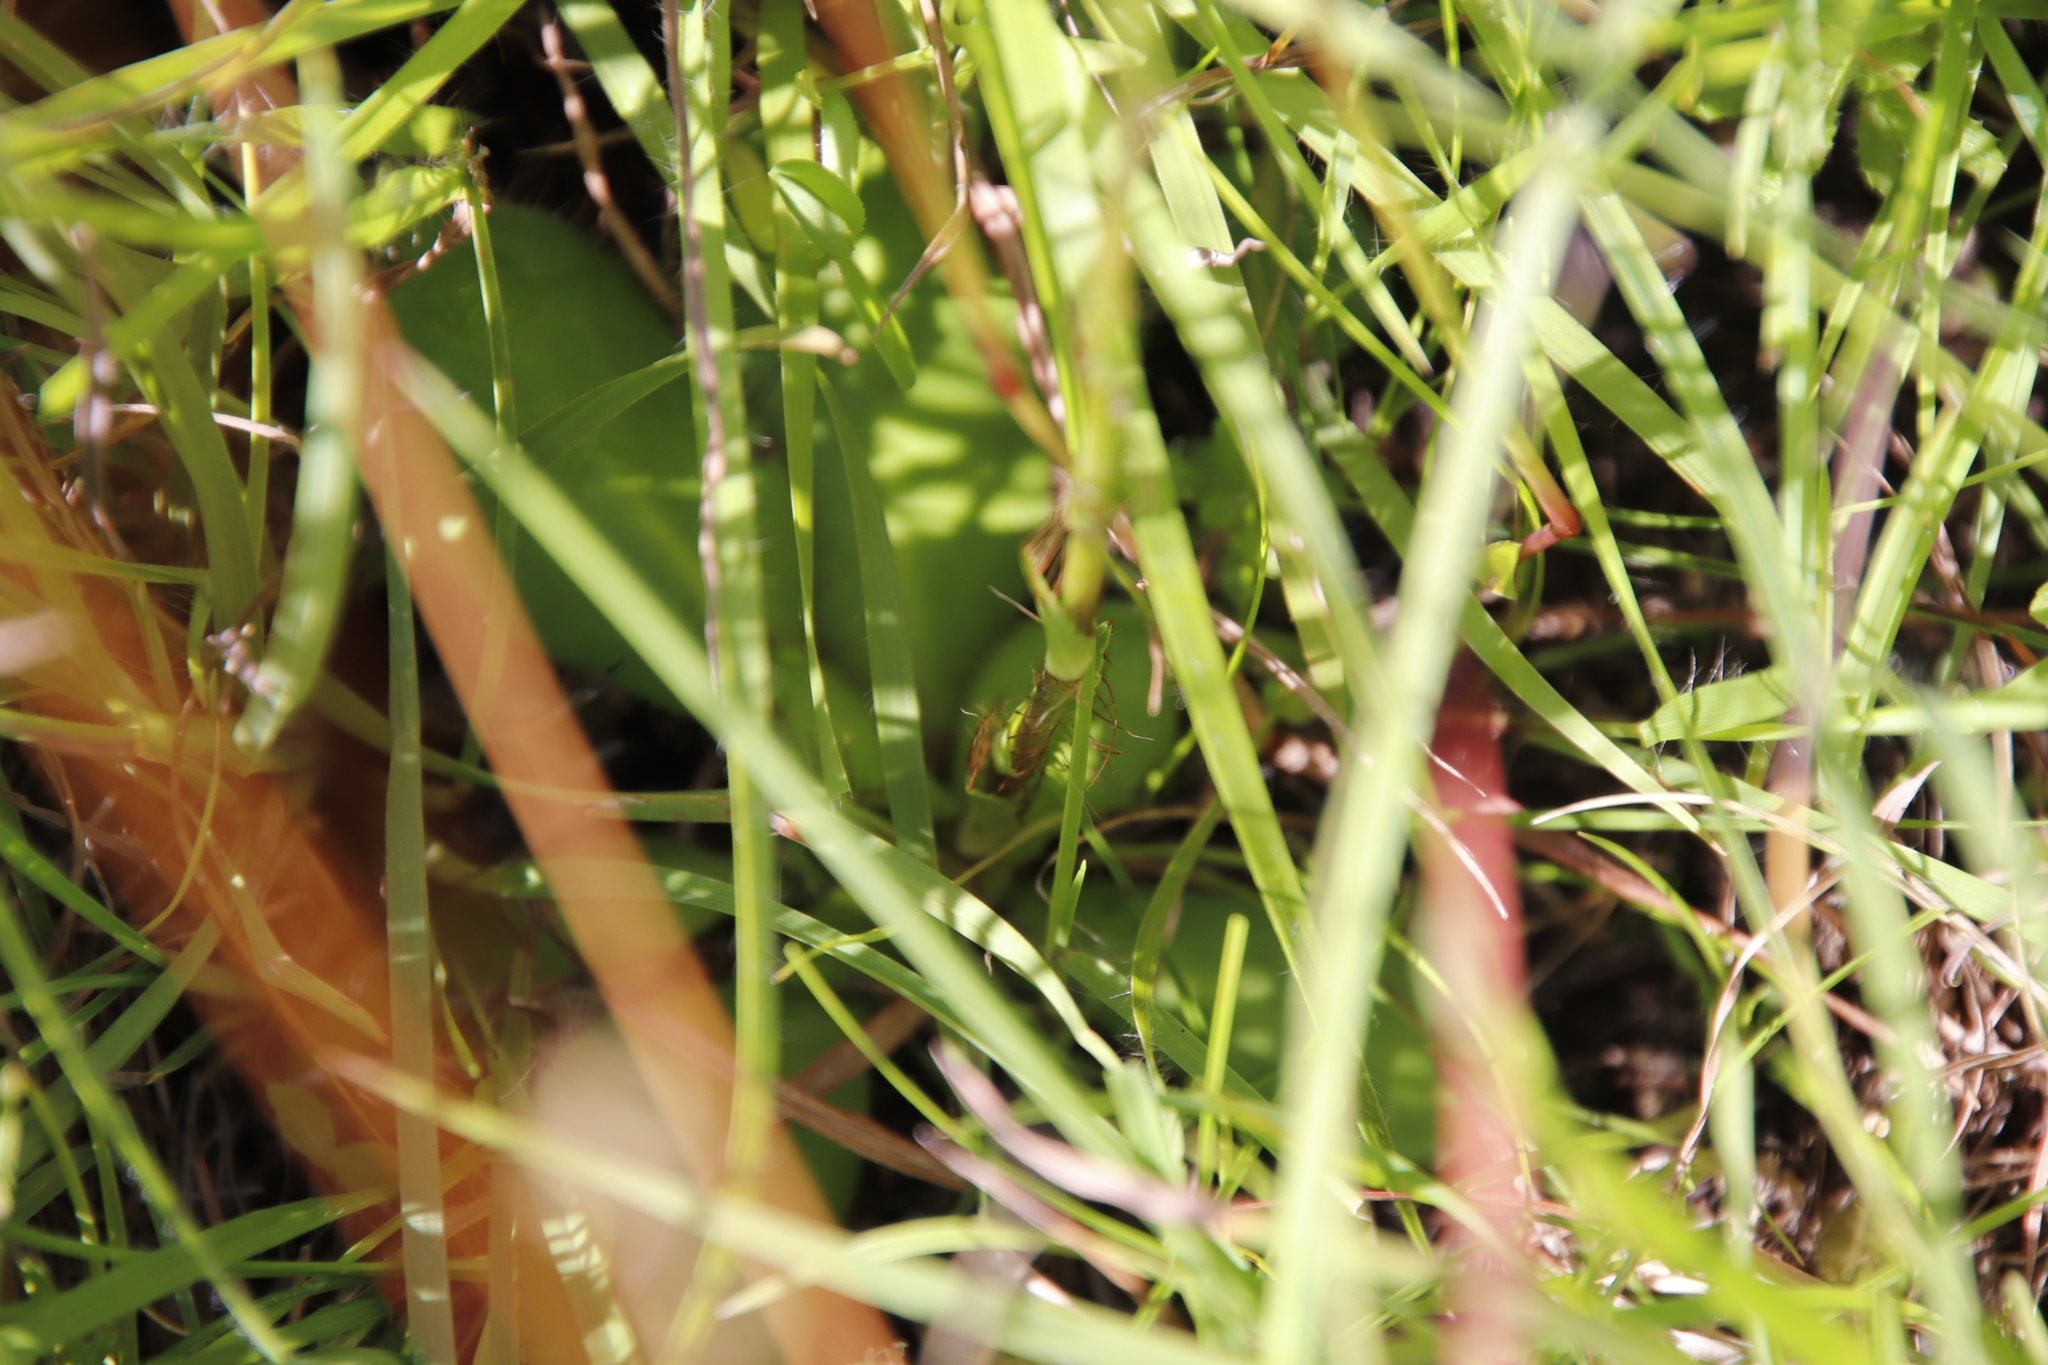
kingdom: Plantae
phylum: Tracheophyta
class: Magnoliopsida
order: Apiales
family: Apiaceae
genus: Alepidea
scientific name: Alepidea natalensis
